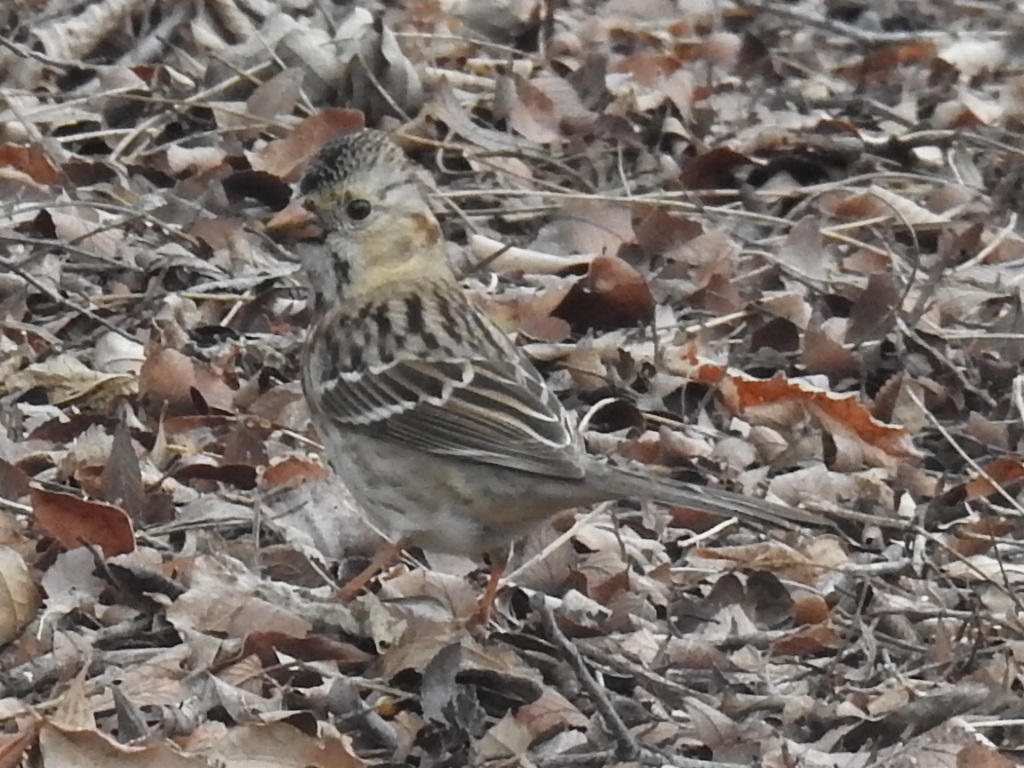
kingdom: Animalia
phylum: Chordata
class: Aves
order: Passeriformes
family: Passerellidae
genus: Zonotrichia
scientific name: Zonotrichia querula
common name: Harris's sparrow
